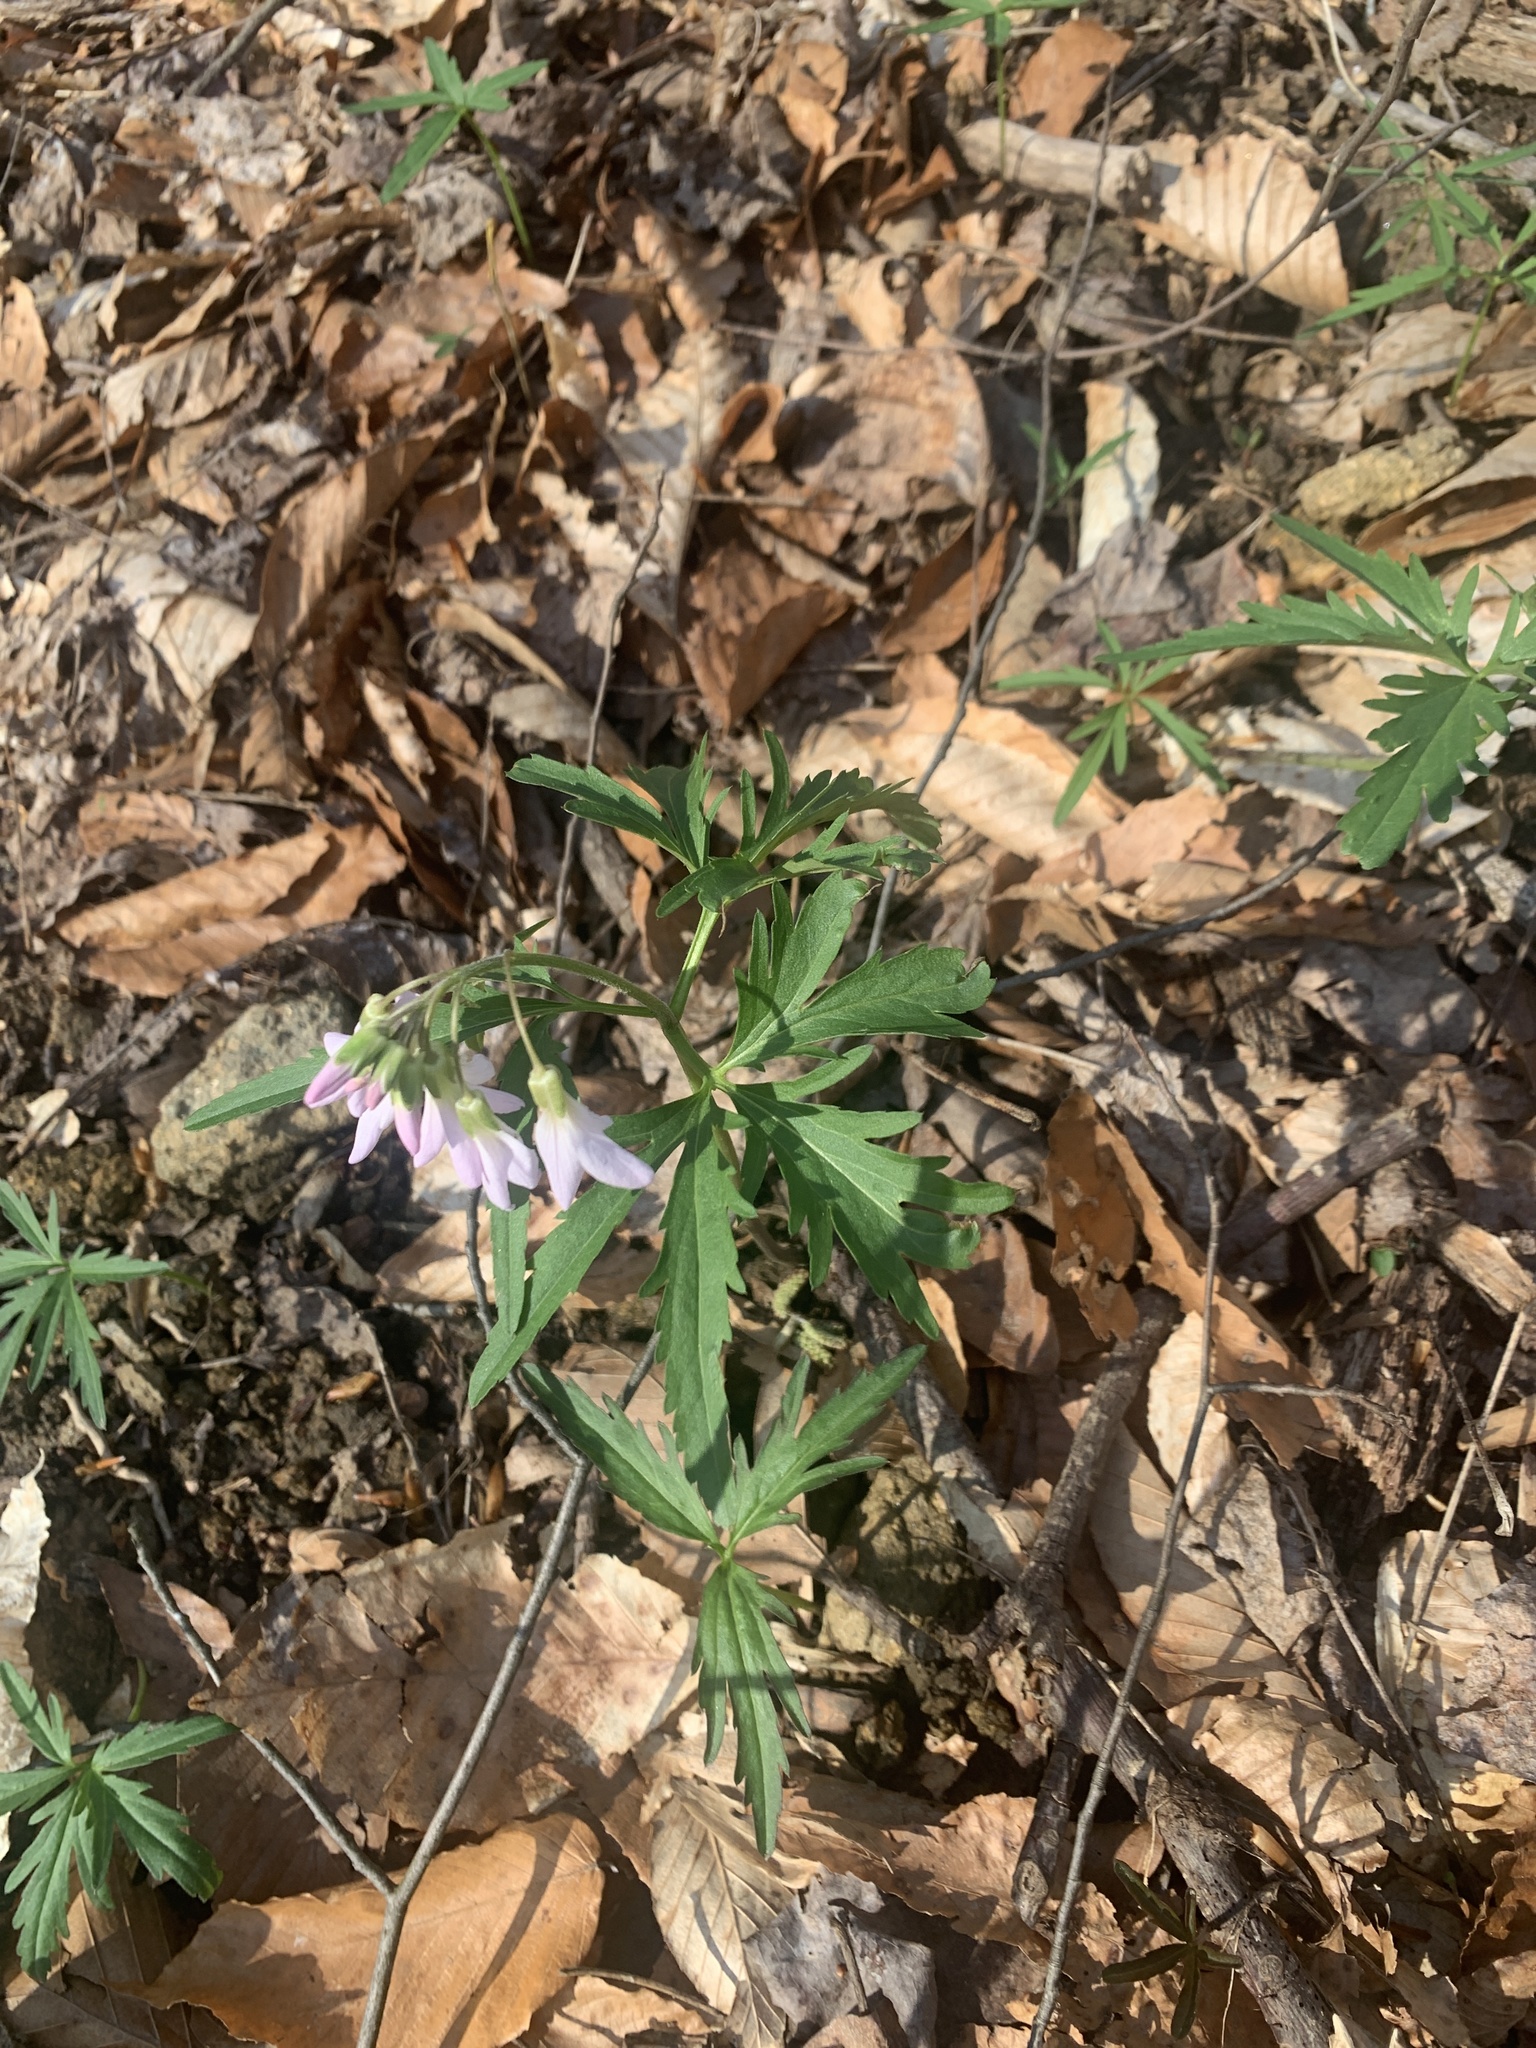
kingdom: Plantae
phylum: Tracheophyta
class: Magnoliopsida
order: Brassicales
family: Brassicaceae
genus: Cardamine
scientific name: Cardamine concatenata
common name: Cut-leaf toothcup
